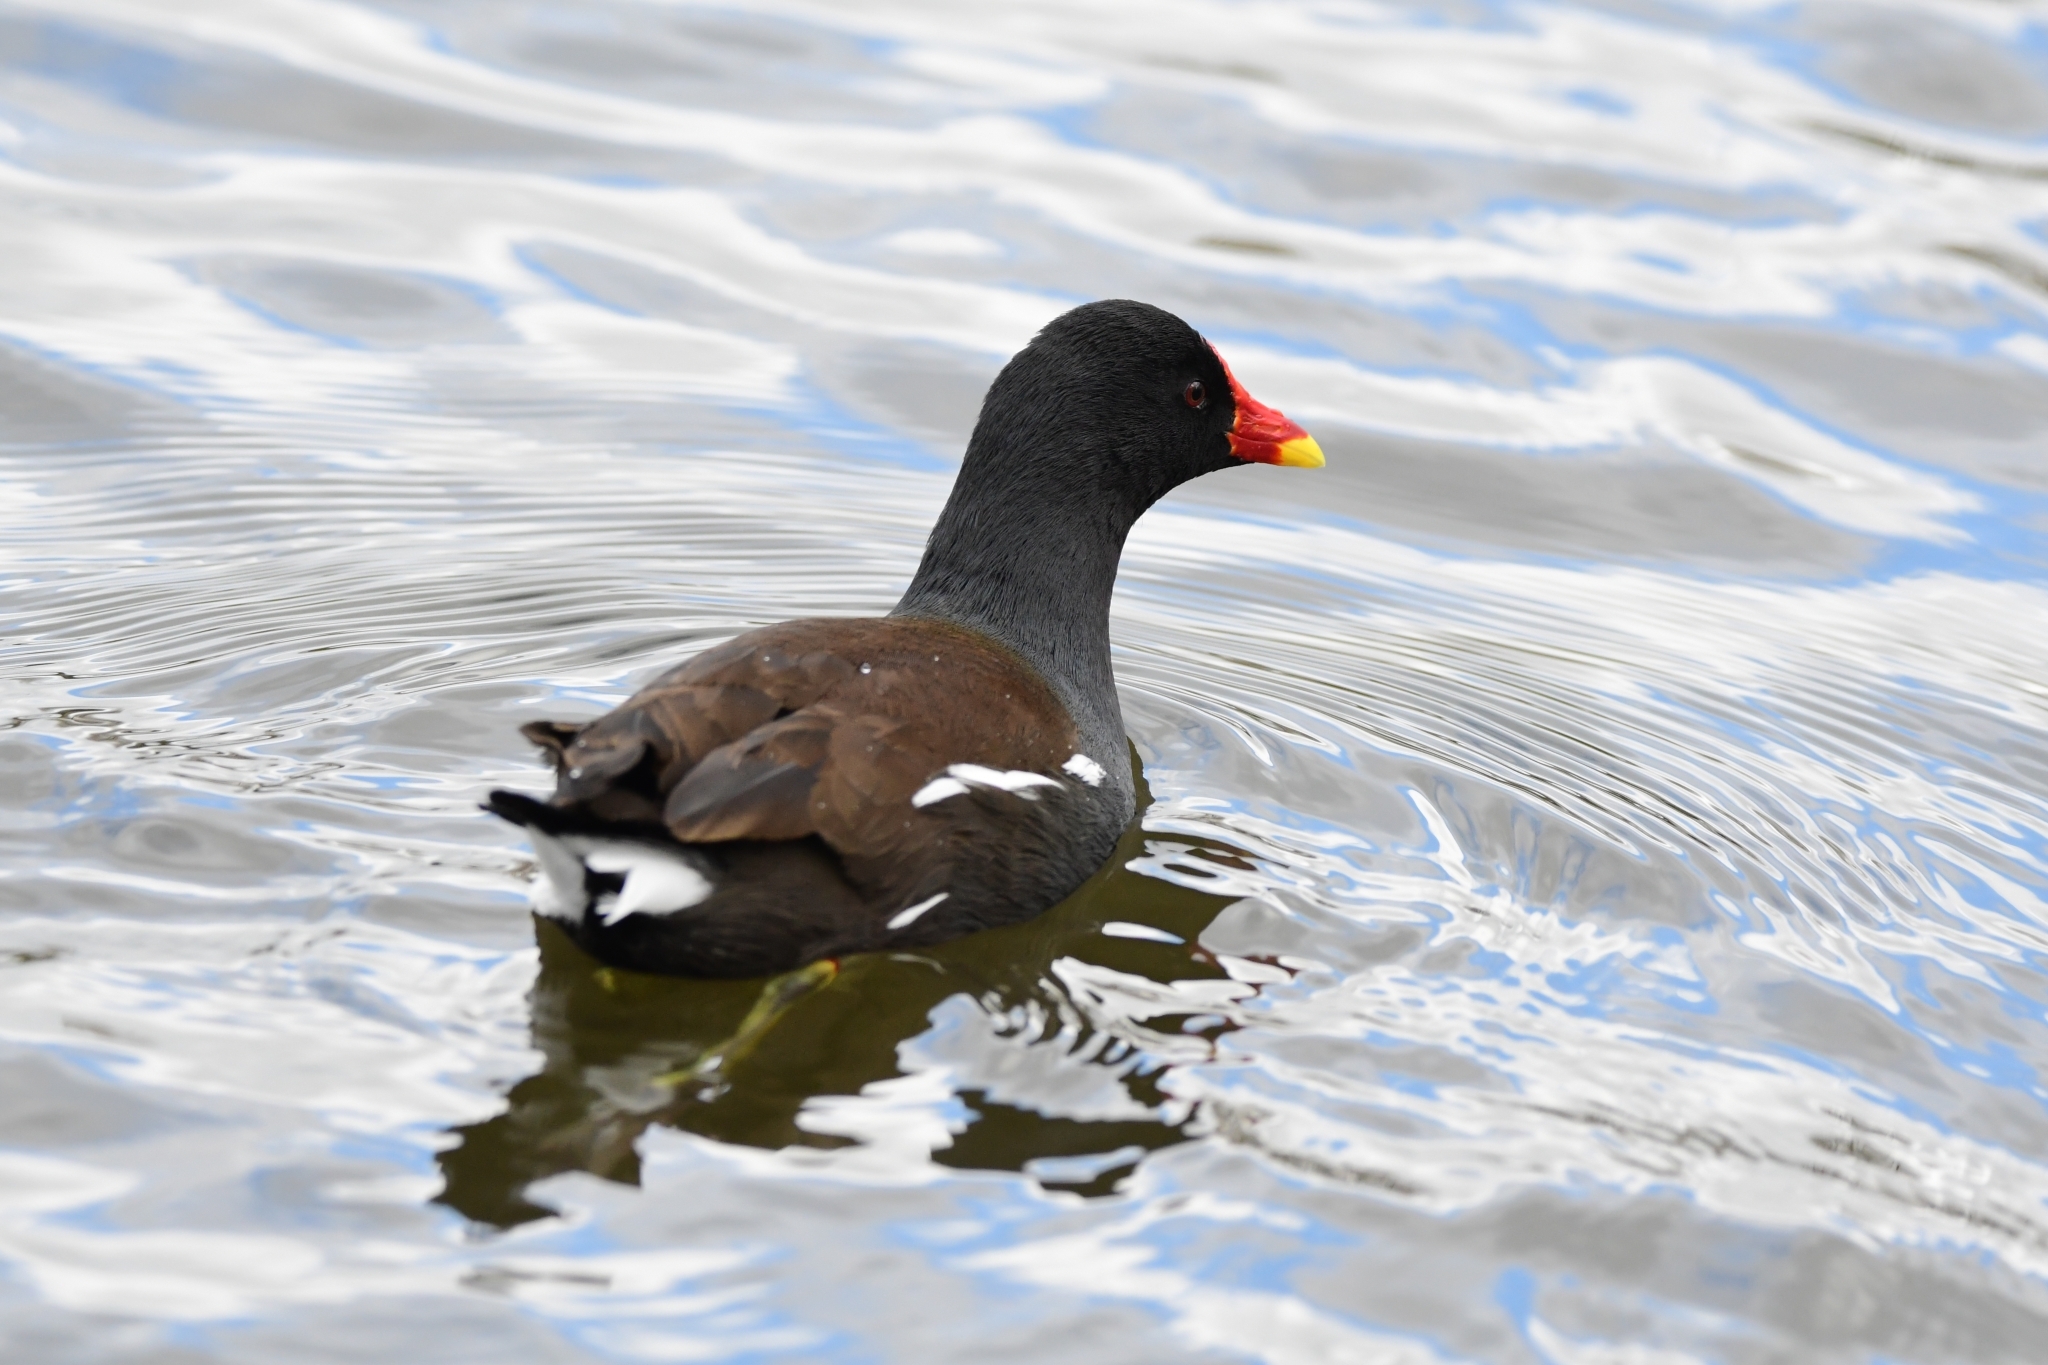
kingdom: Animalia
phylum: Chordata
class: Aves
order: Gruiformes
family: Rallidae
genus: Gallinula
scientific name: Gallinula chloropus
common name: Common moorhen
